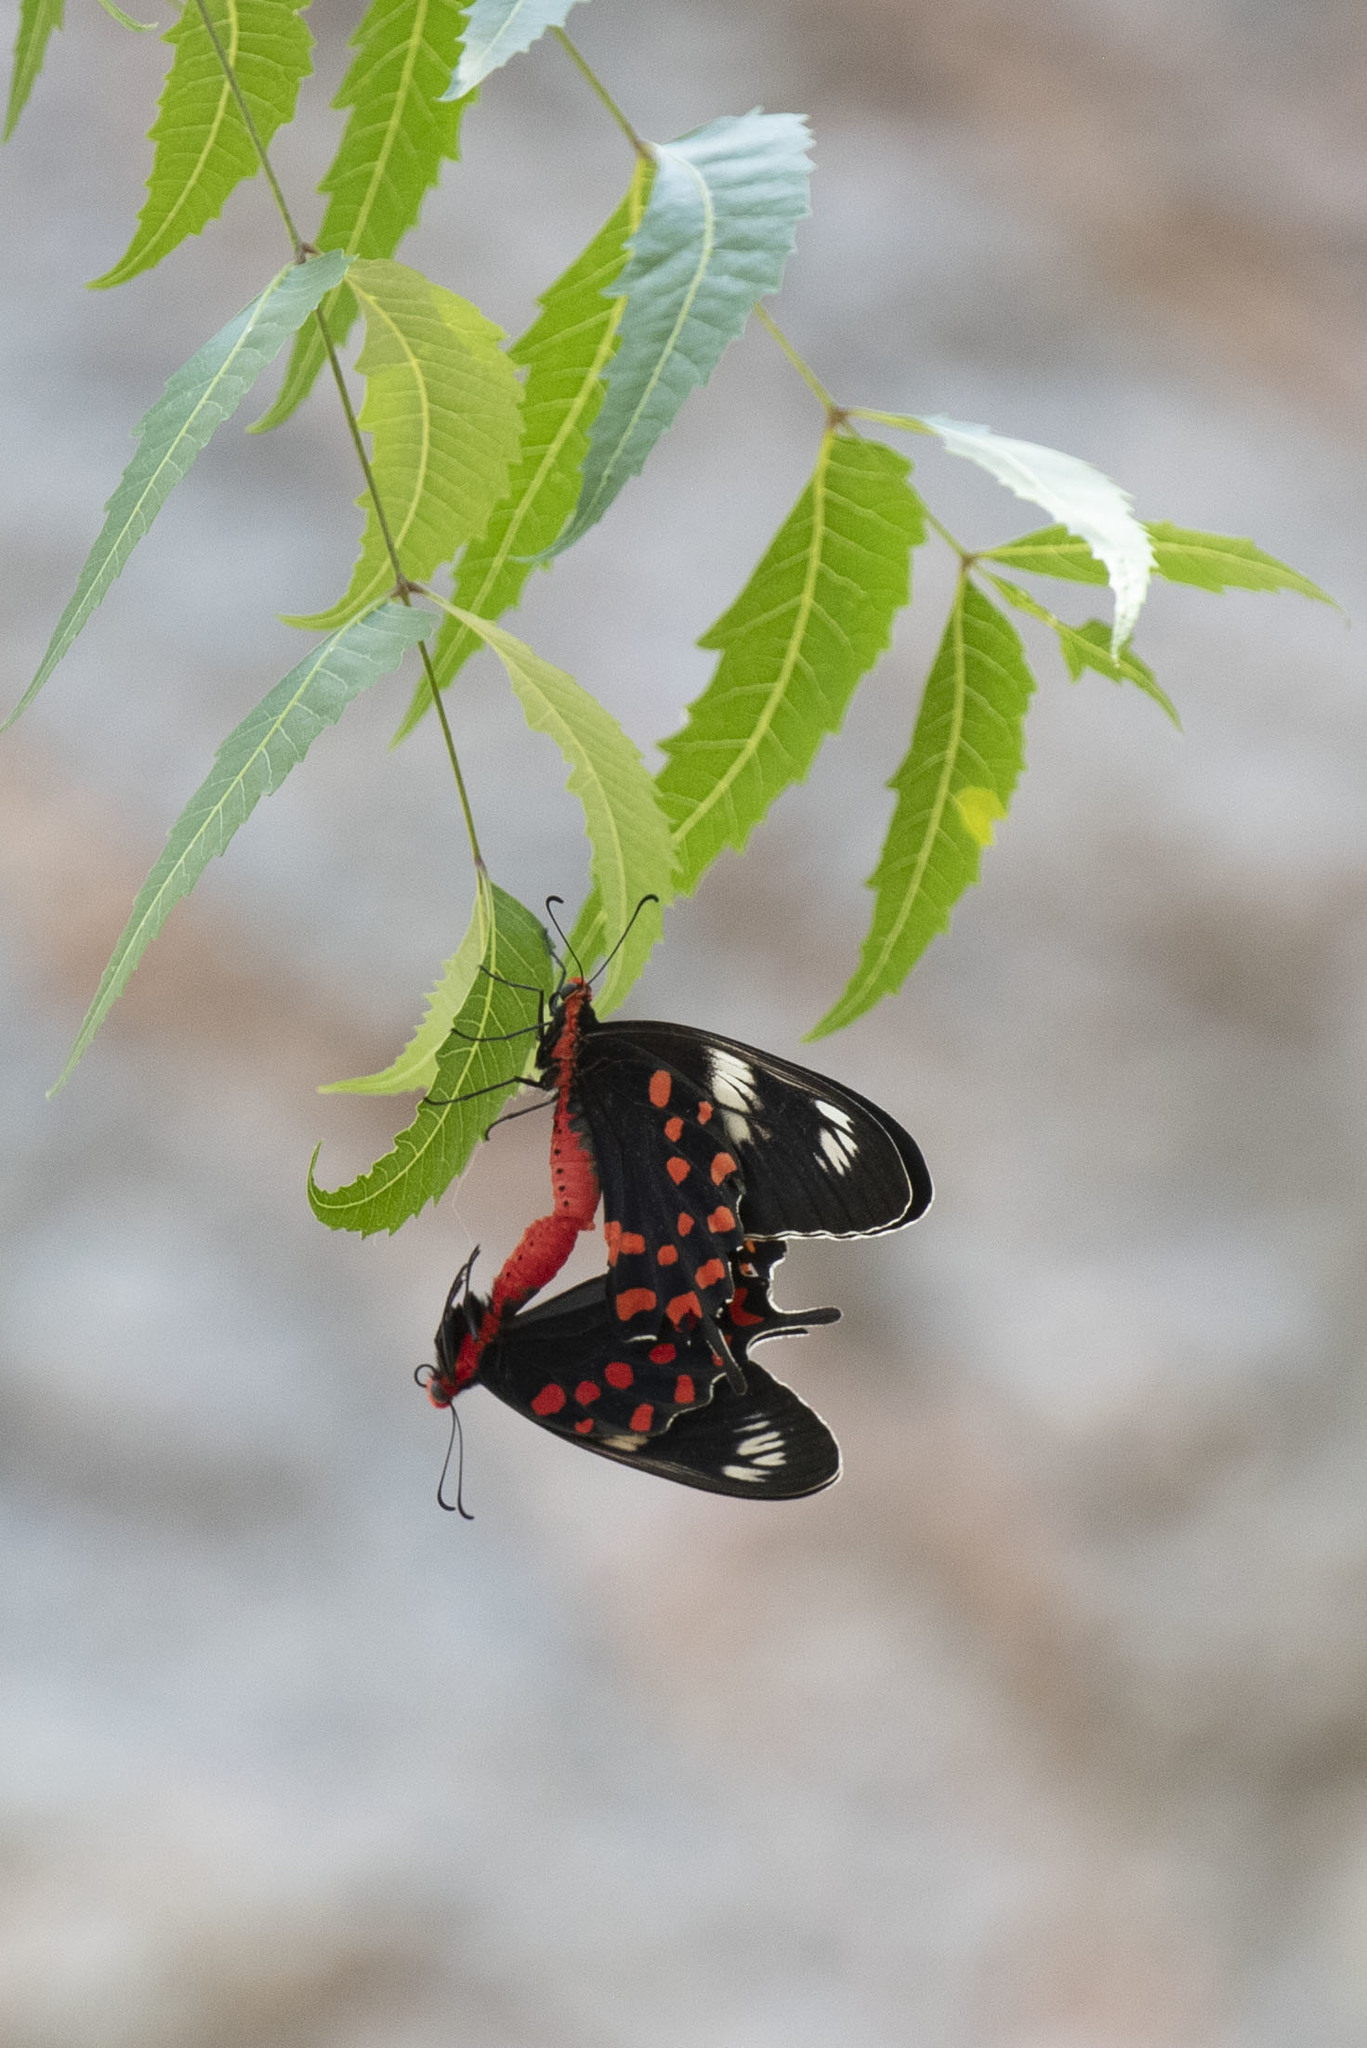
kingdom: Animalia
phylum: Arthropoda
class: Insecta
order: Lepidoptera
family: Papilionidae
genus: Pachliopta
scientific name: Pachliopta hector
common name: Crimson rose
